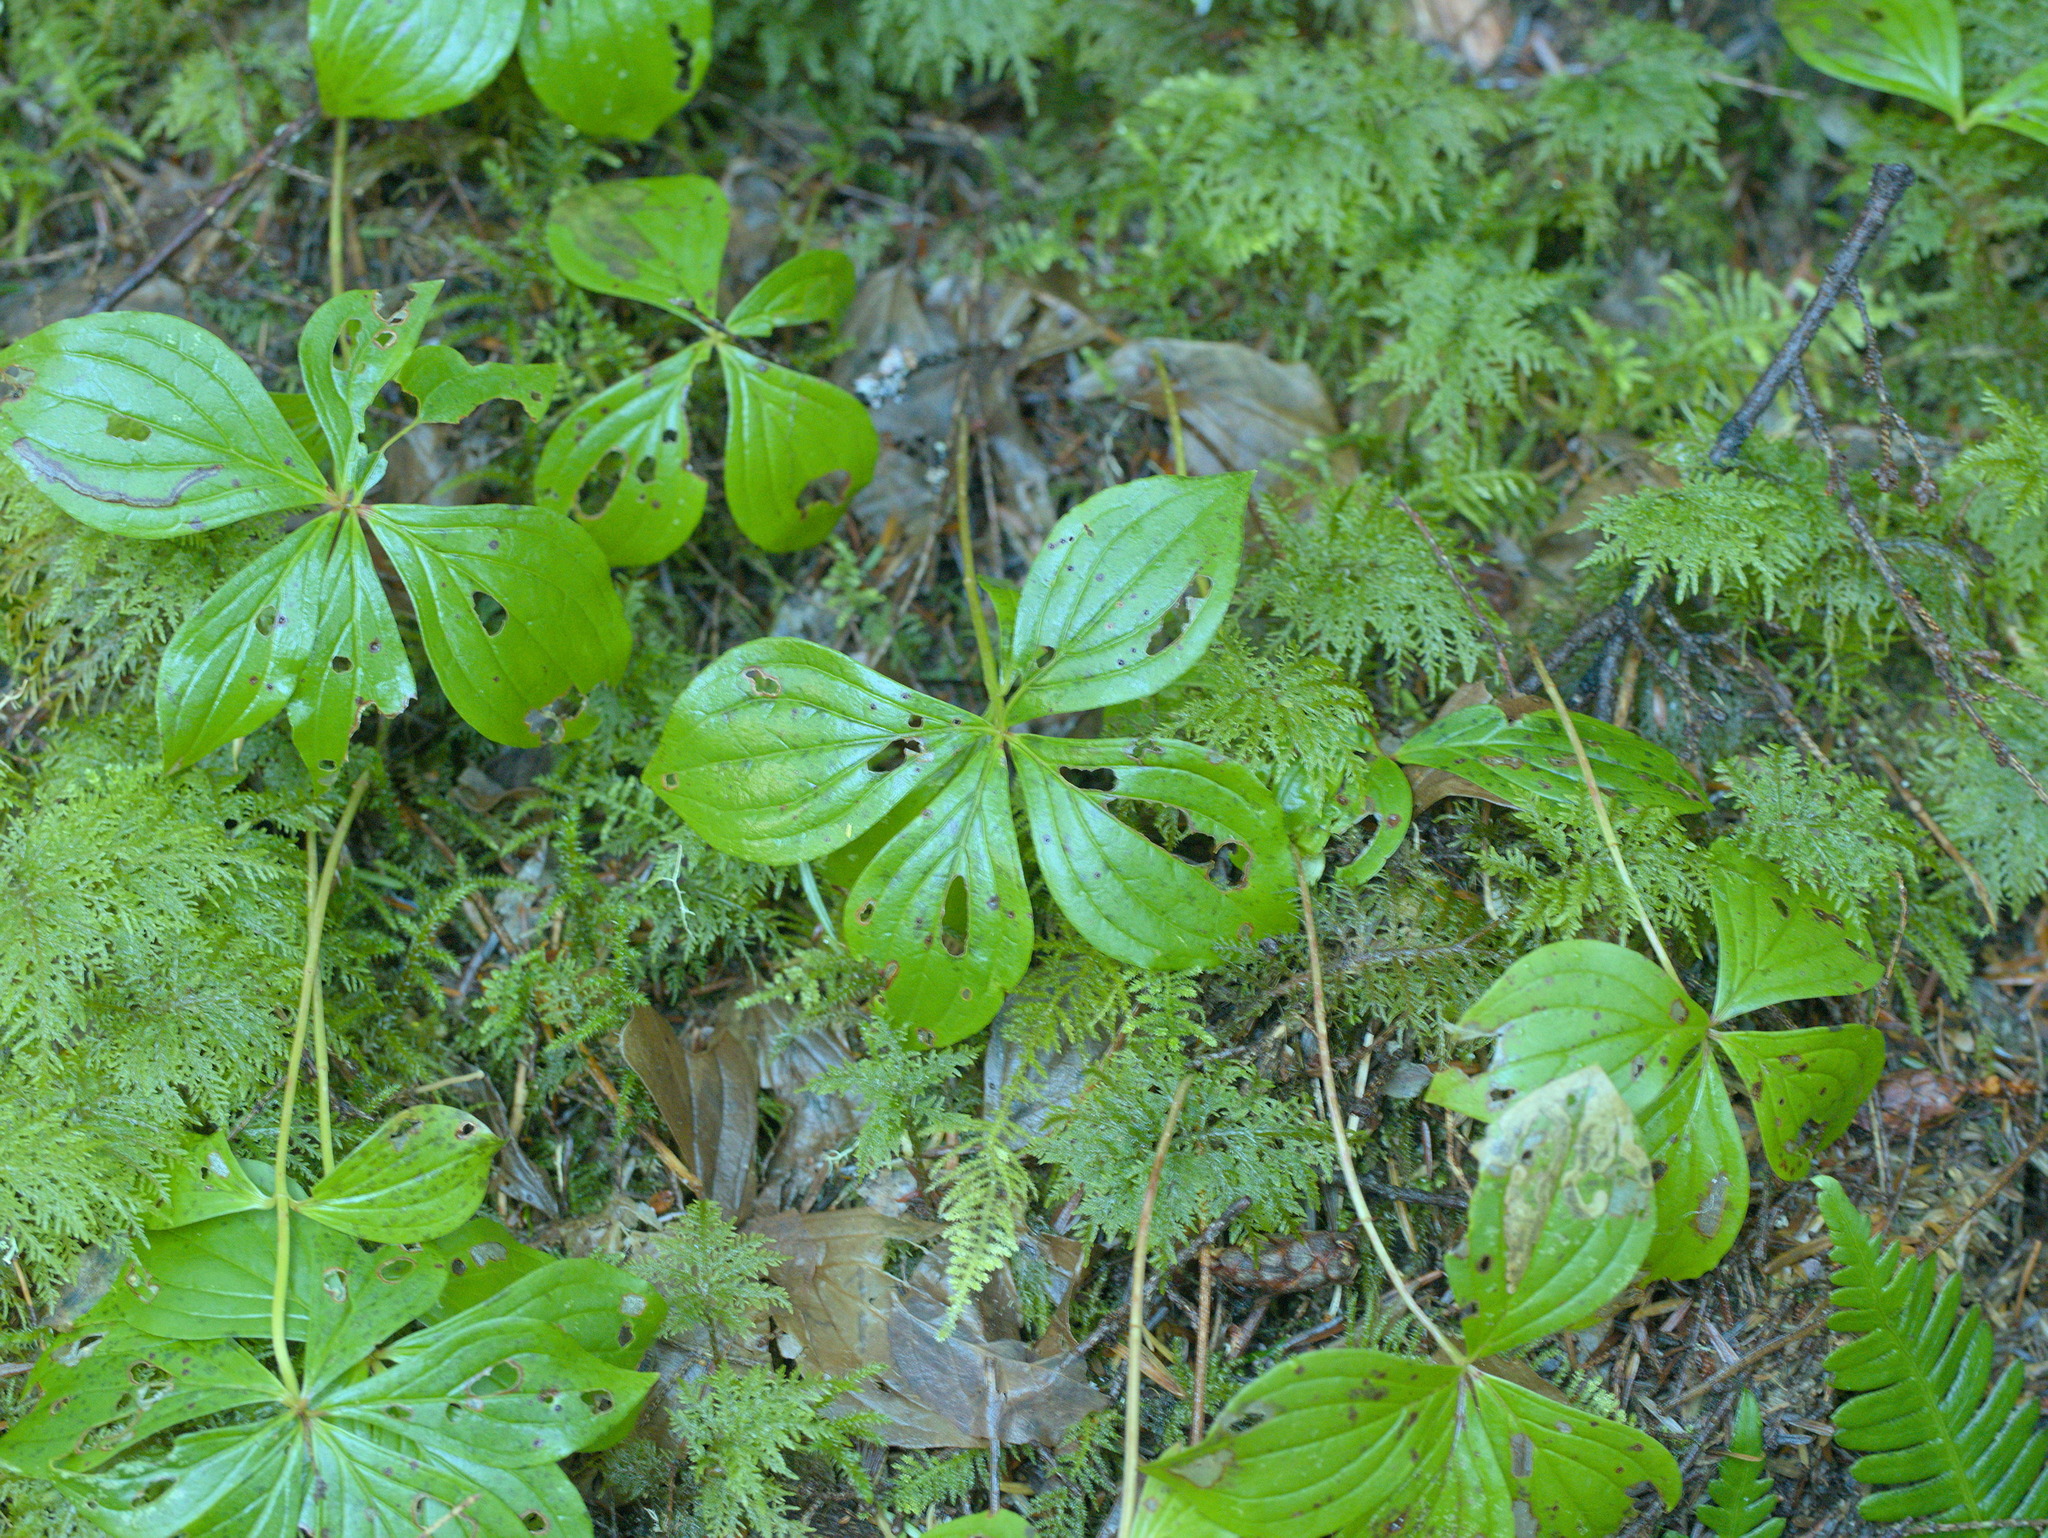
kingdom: Plantae
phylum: Tracheophyta
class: Magnoliopsida
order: Cornales
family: Cornaceae
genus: Cornus
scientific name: Cornus unalaschkensis
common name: Alaska bunchberry
